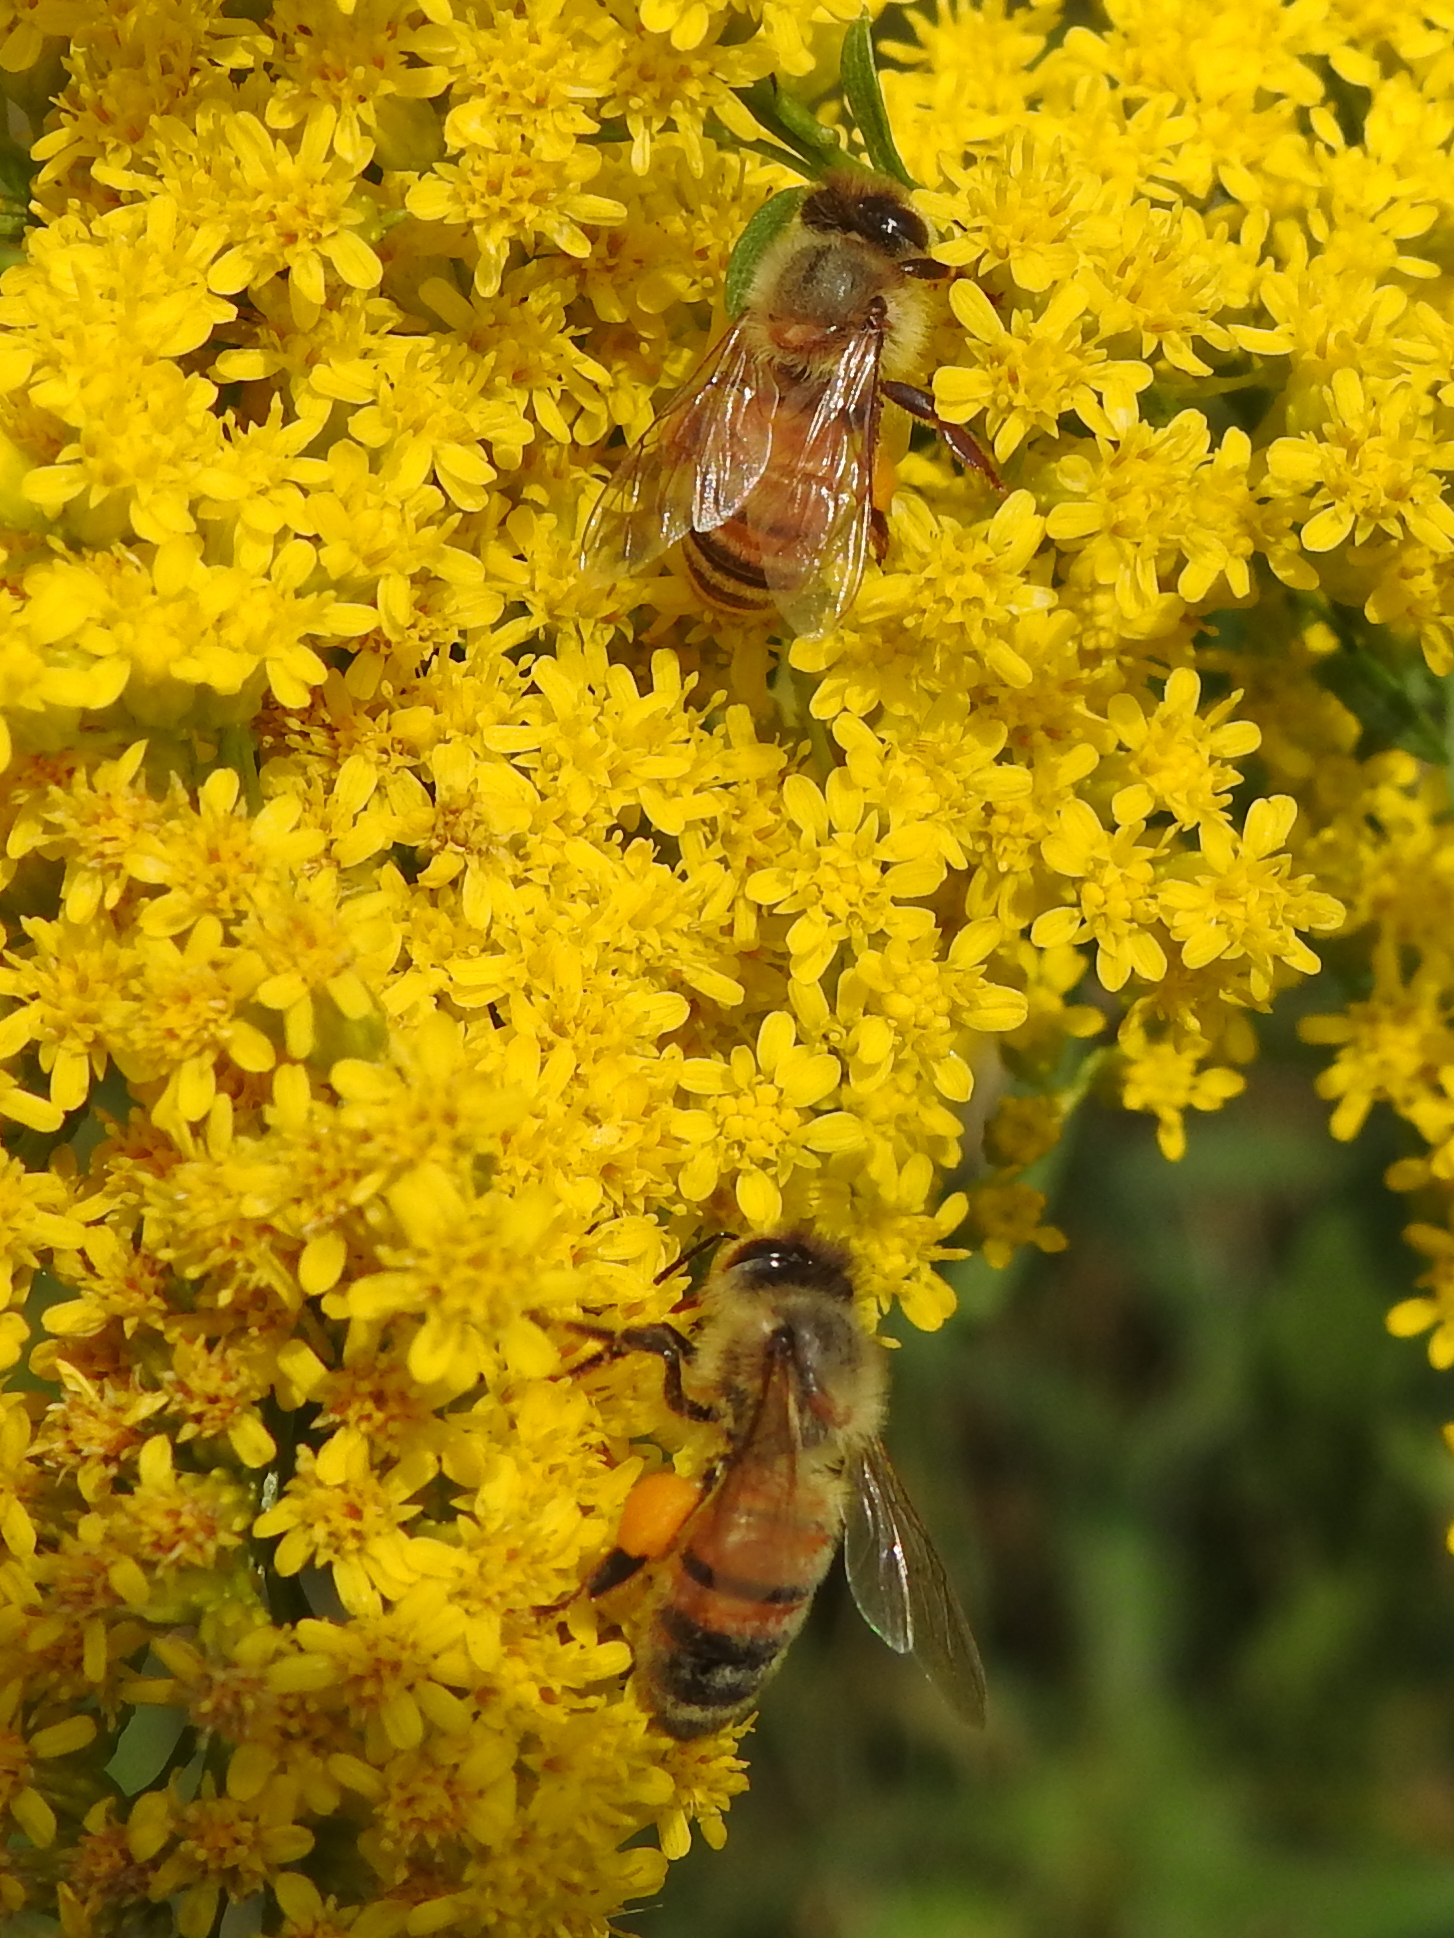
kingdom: Animalia
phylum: Arthropoda
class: Insecta
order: Hymenoptera
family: Apidae
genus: Apis
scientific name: Apis mellifera
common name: Honey bee
